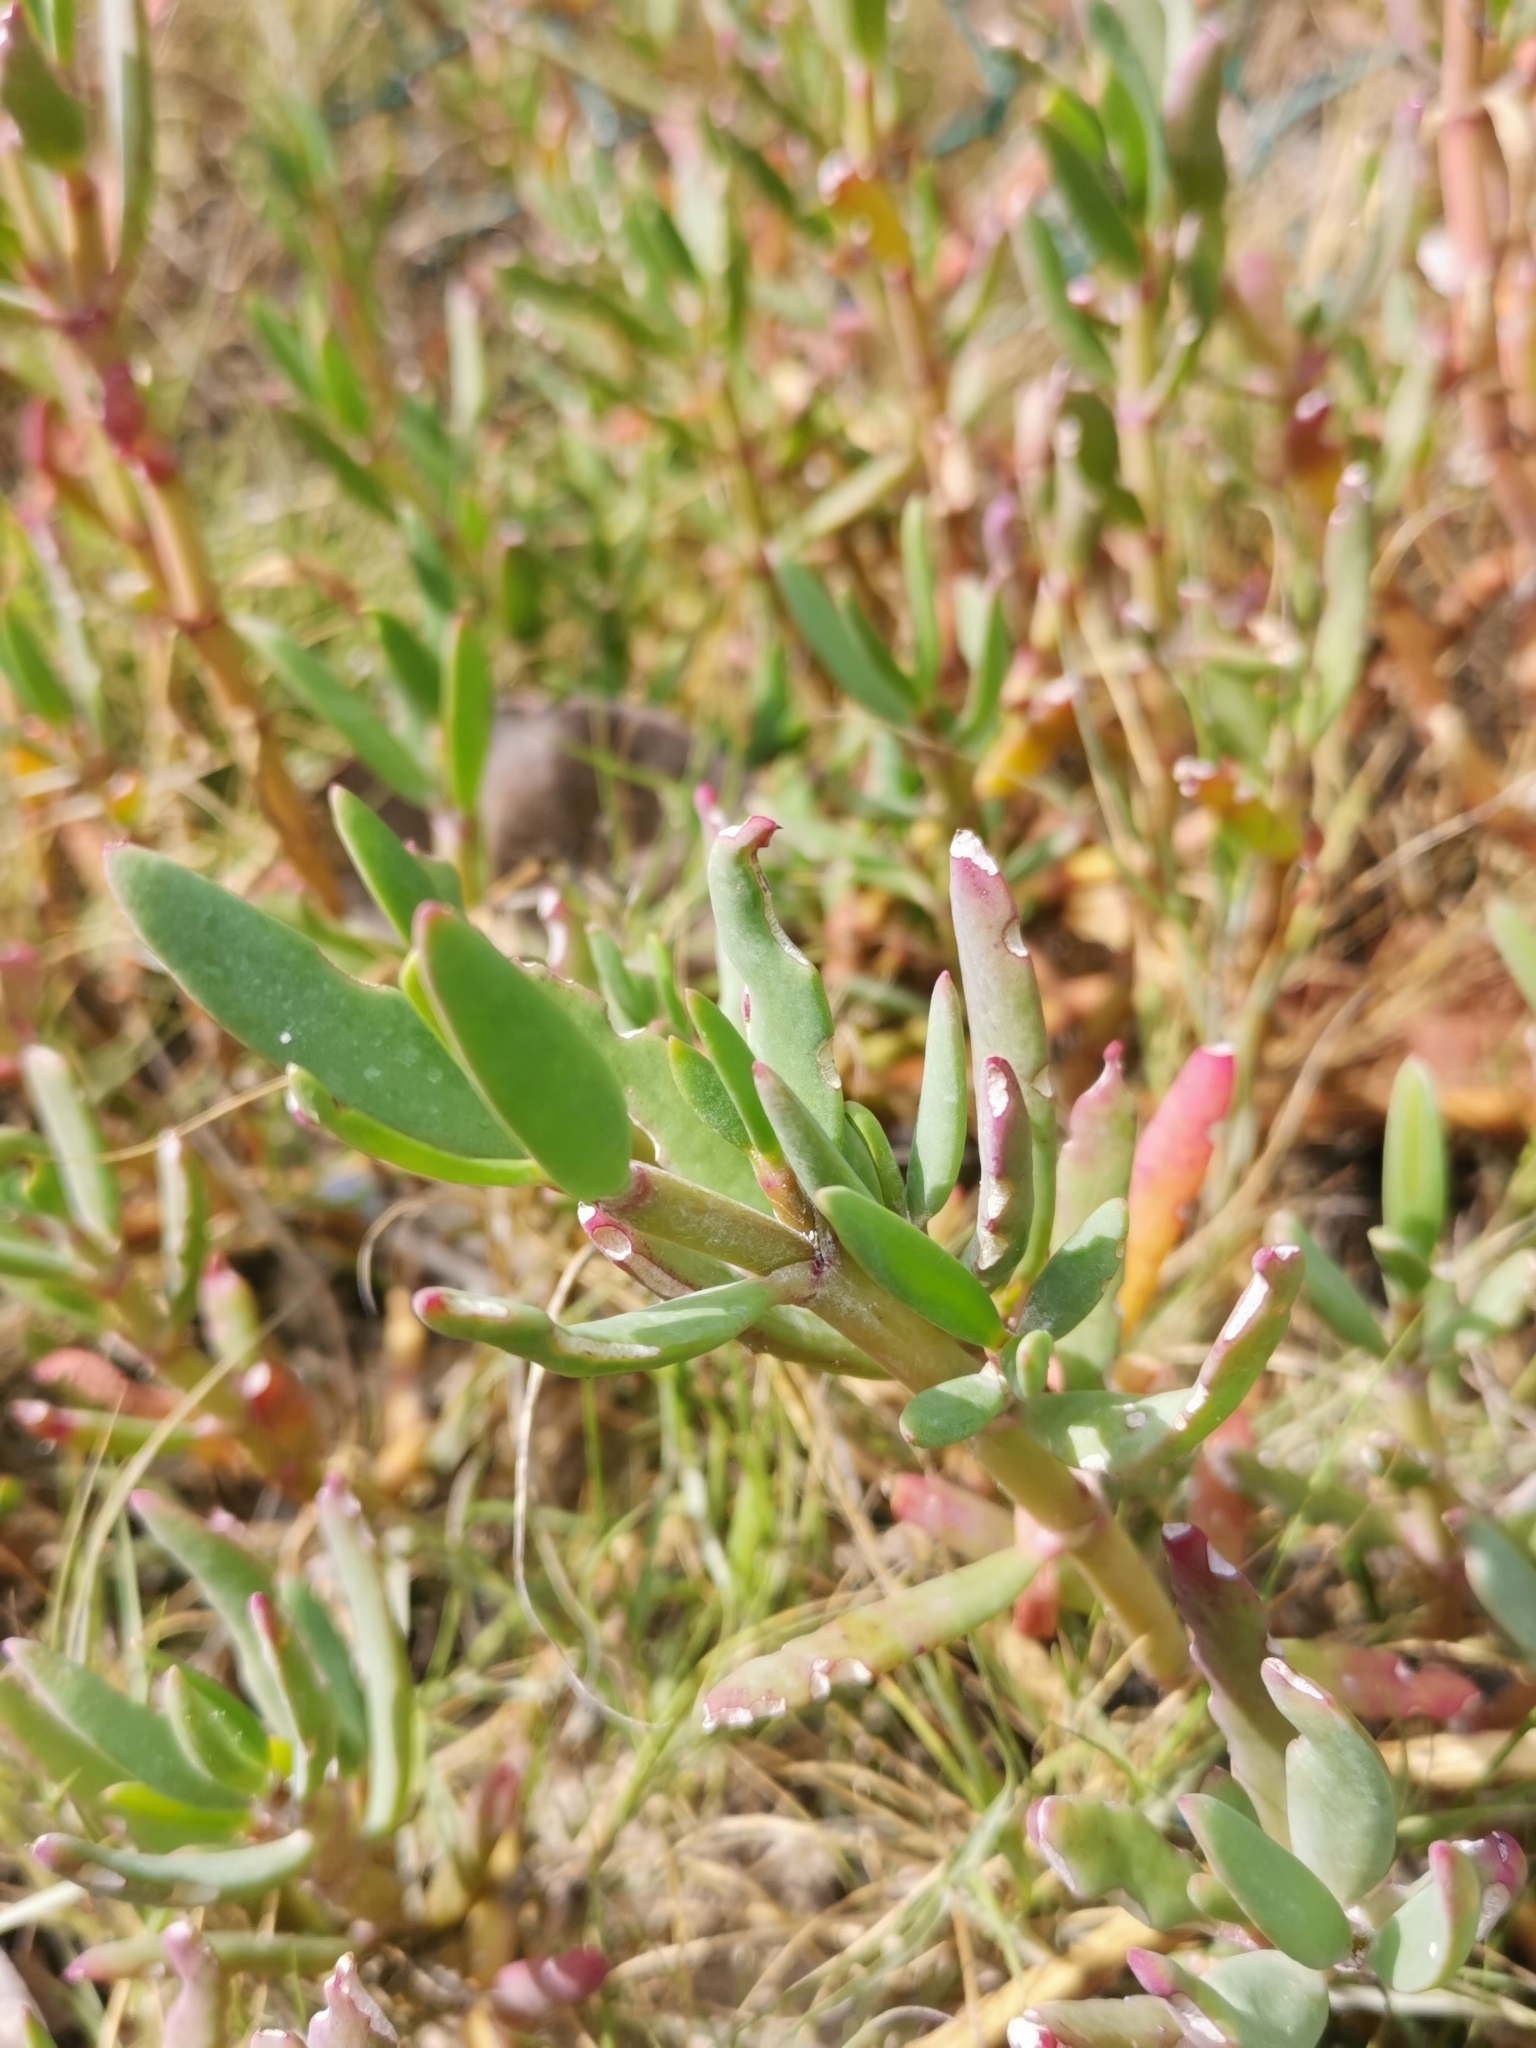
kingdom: Plantae
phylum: Tracheophyta
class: Magnoliopsida
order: Caryophyllales
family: Aizoaceae
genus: Sesuvium
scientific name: Sesuvium portulacastrum
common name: Sea-purslane
